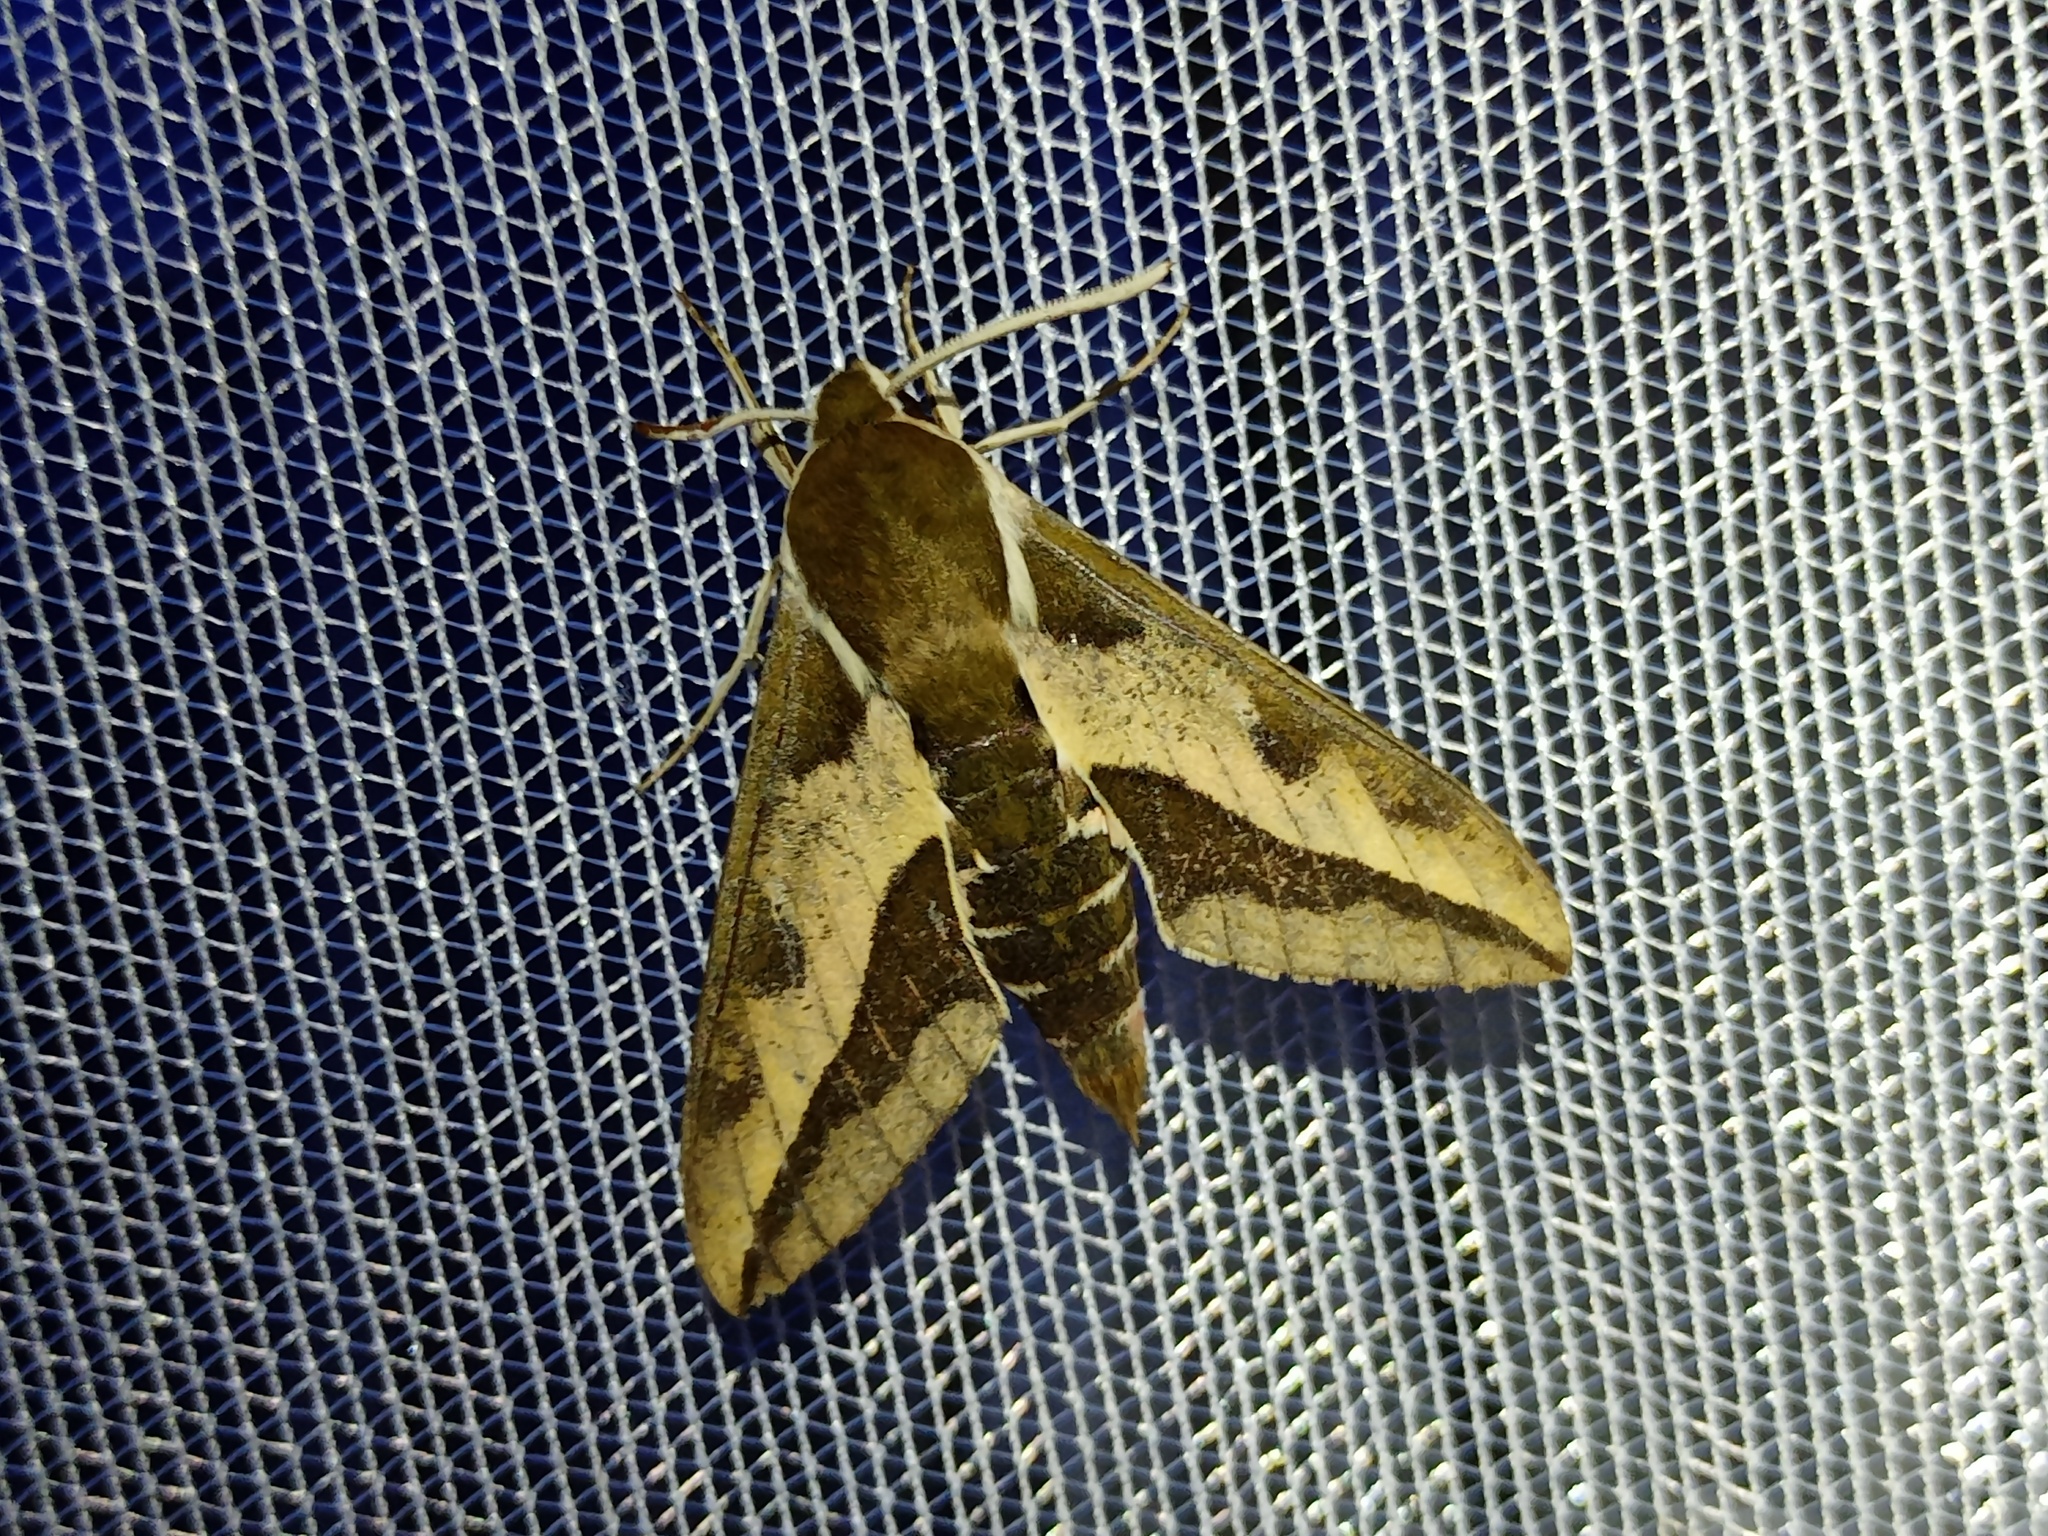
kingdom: Animalia
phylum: Arthropoda
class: Insecta
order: Lepidoptera
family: Sphingidae
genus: Hyles
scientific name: Hyles euphorbiae
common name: Spurge hawk-moth
